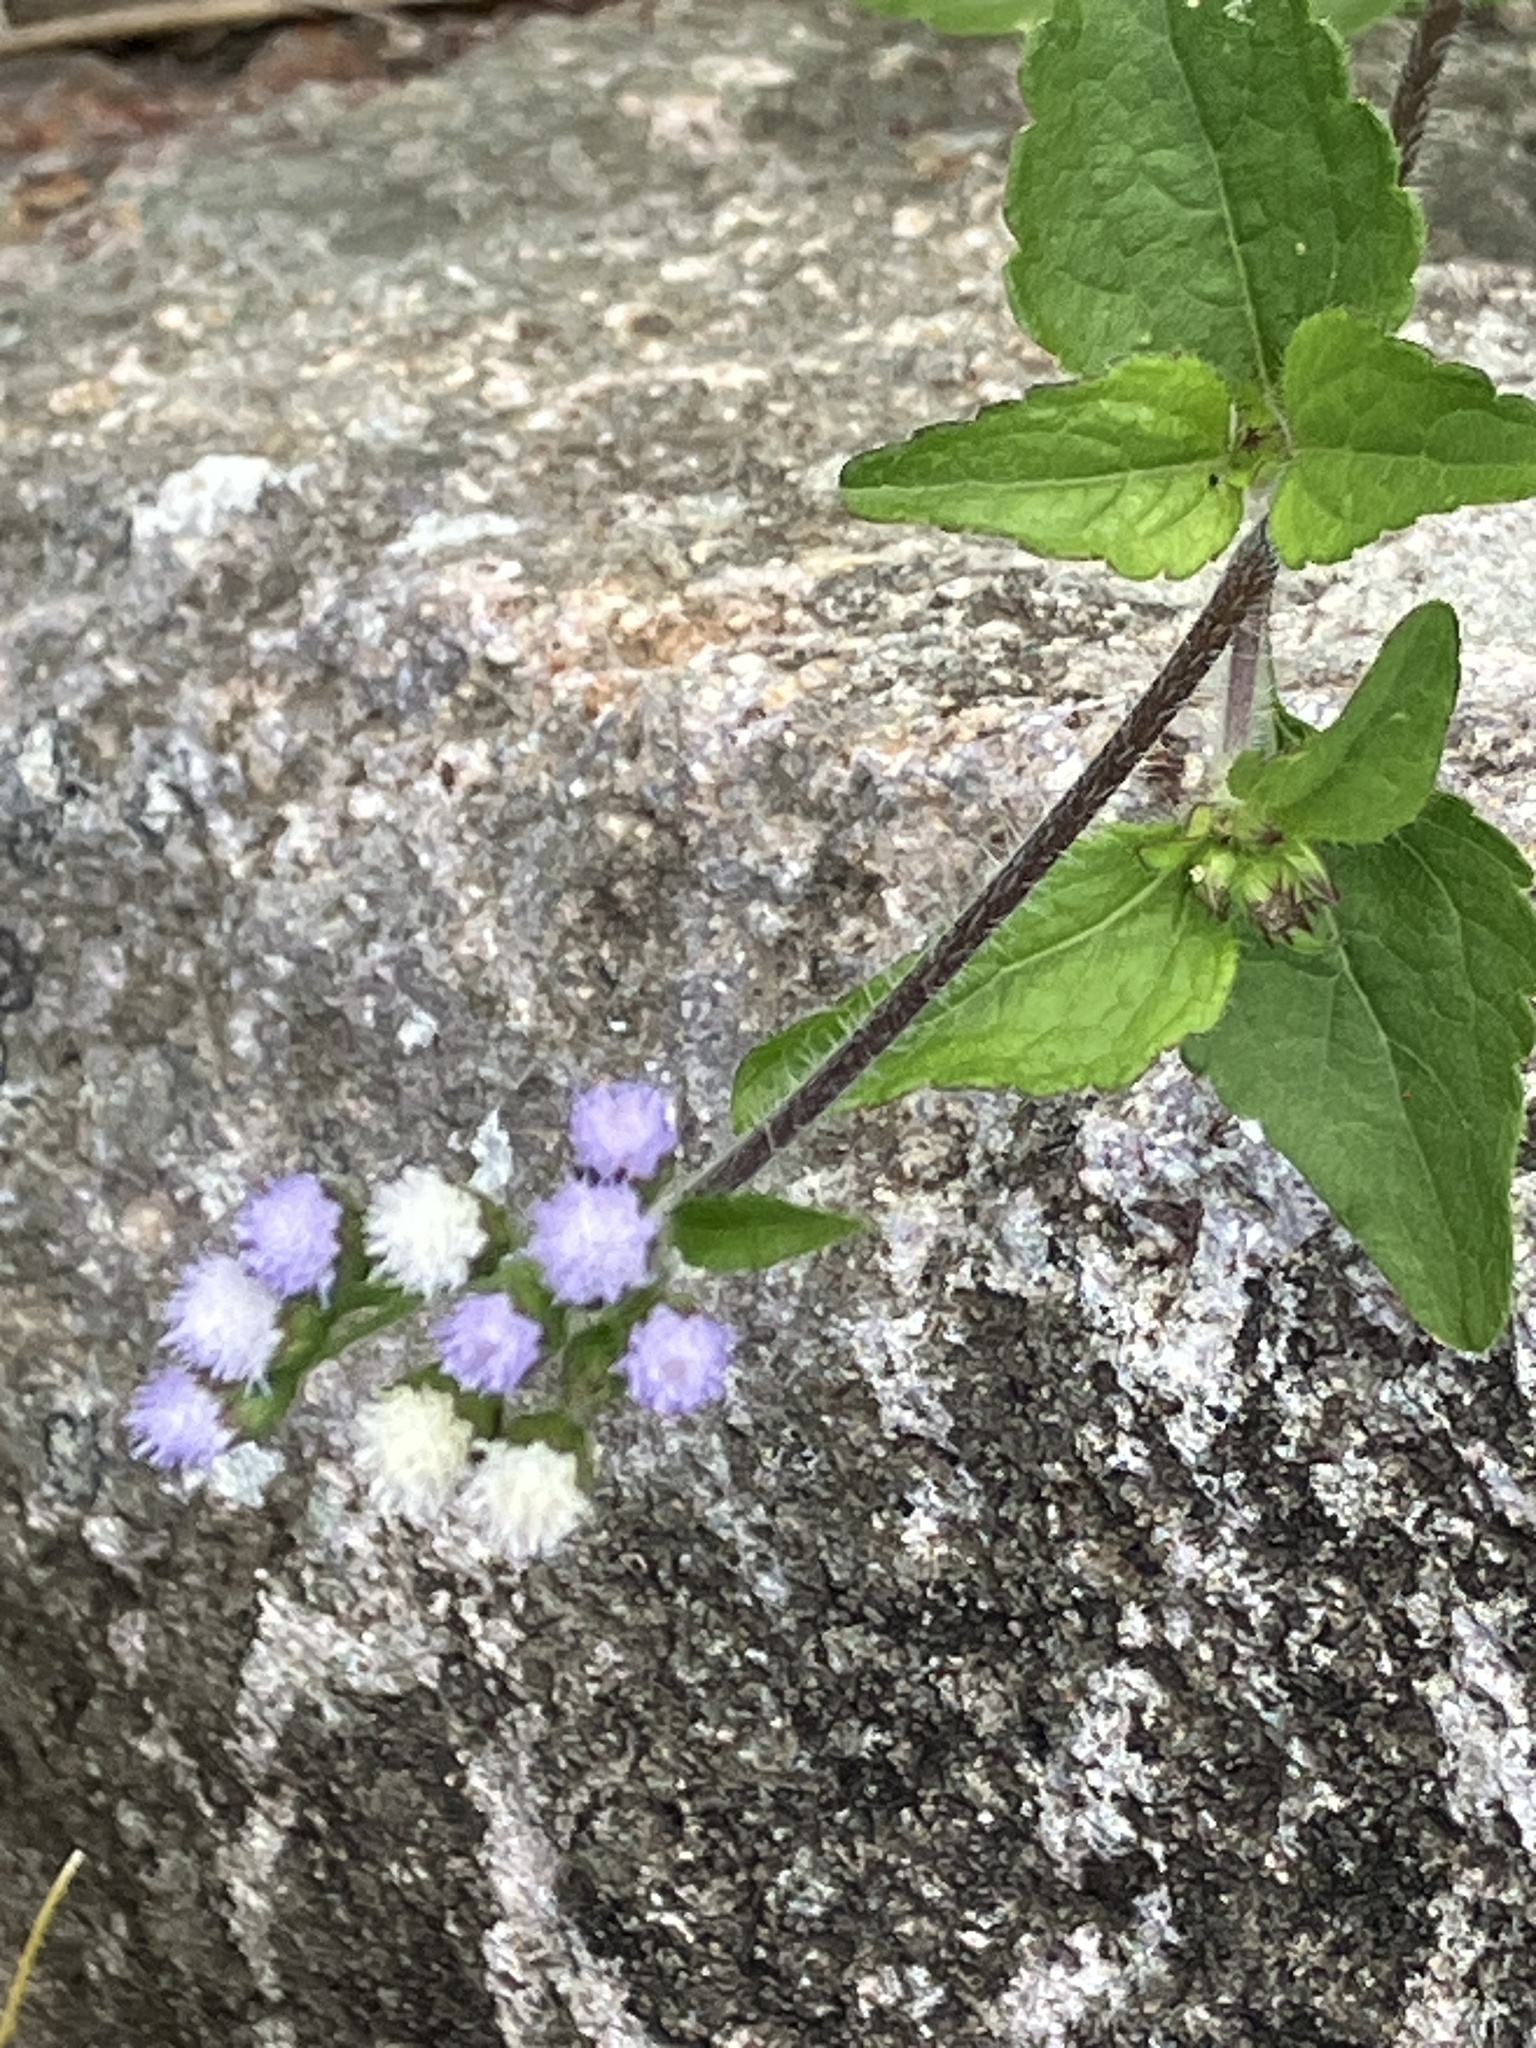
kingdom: Plantae
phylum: Tracheophyta
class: Magnoliopsida
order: Asterales
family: Asteraceae
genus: Ageratum
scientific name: Ageratum conyzoides
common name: Tropical whiteweed
